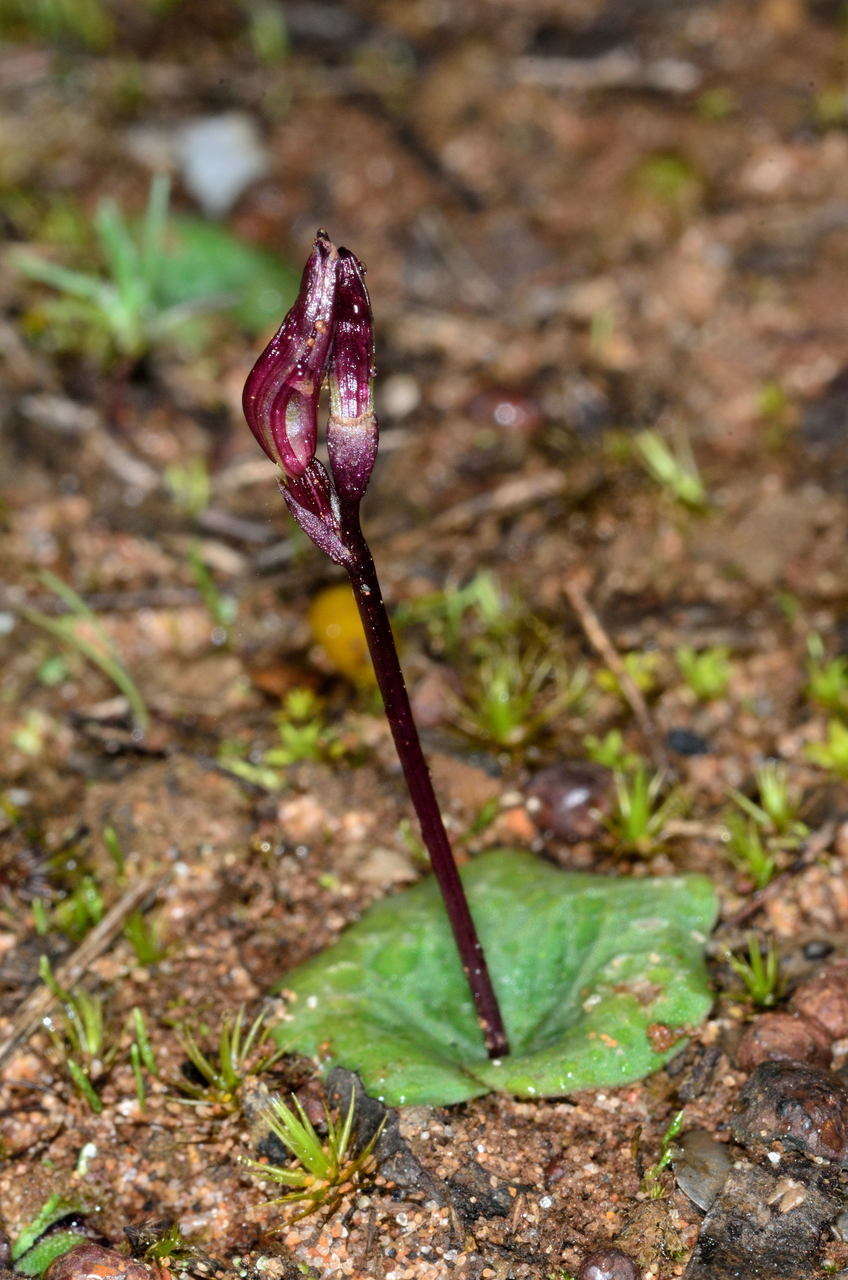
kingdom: Plantae
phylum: Tracheophyta
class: Liliopsida
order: Asparagales
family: Orchidaceae
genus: Cyrtostylis
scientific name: Cyrtostylis reniformis
